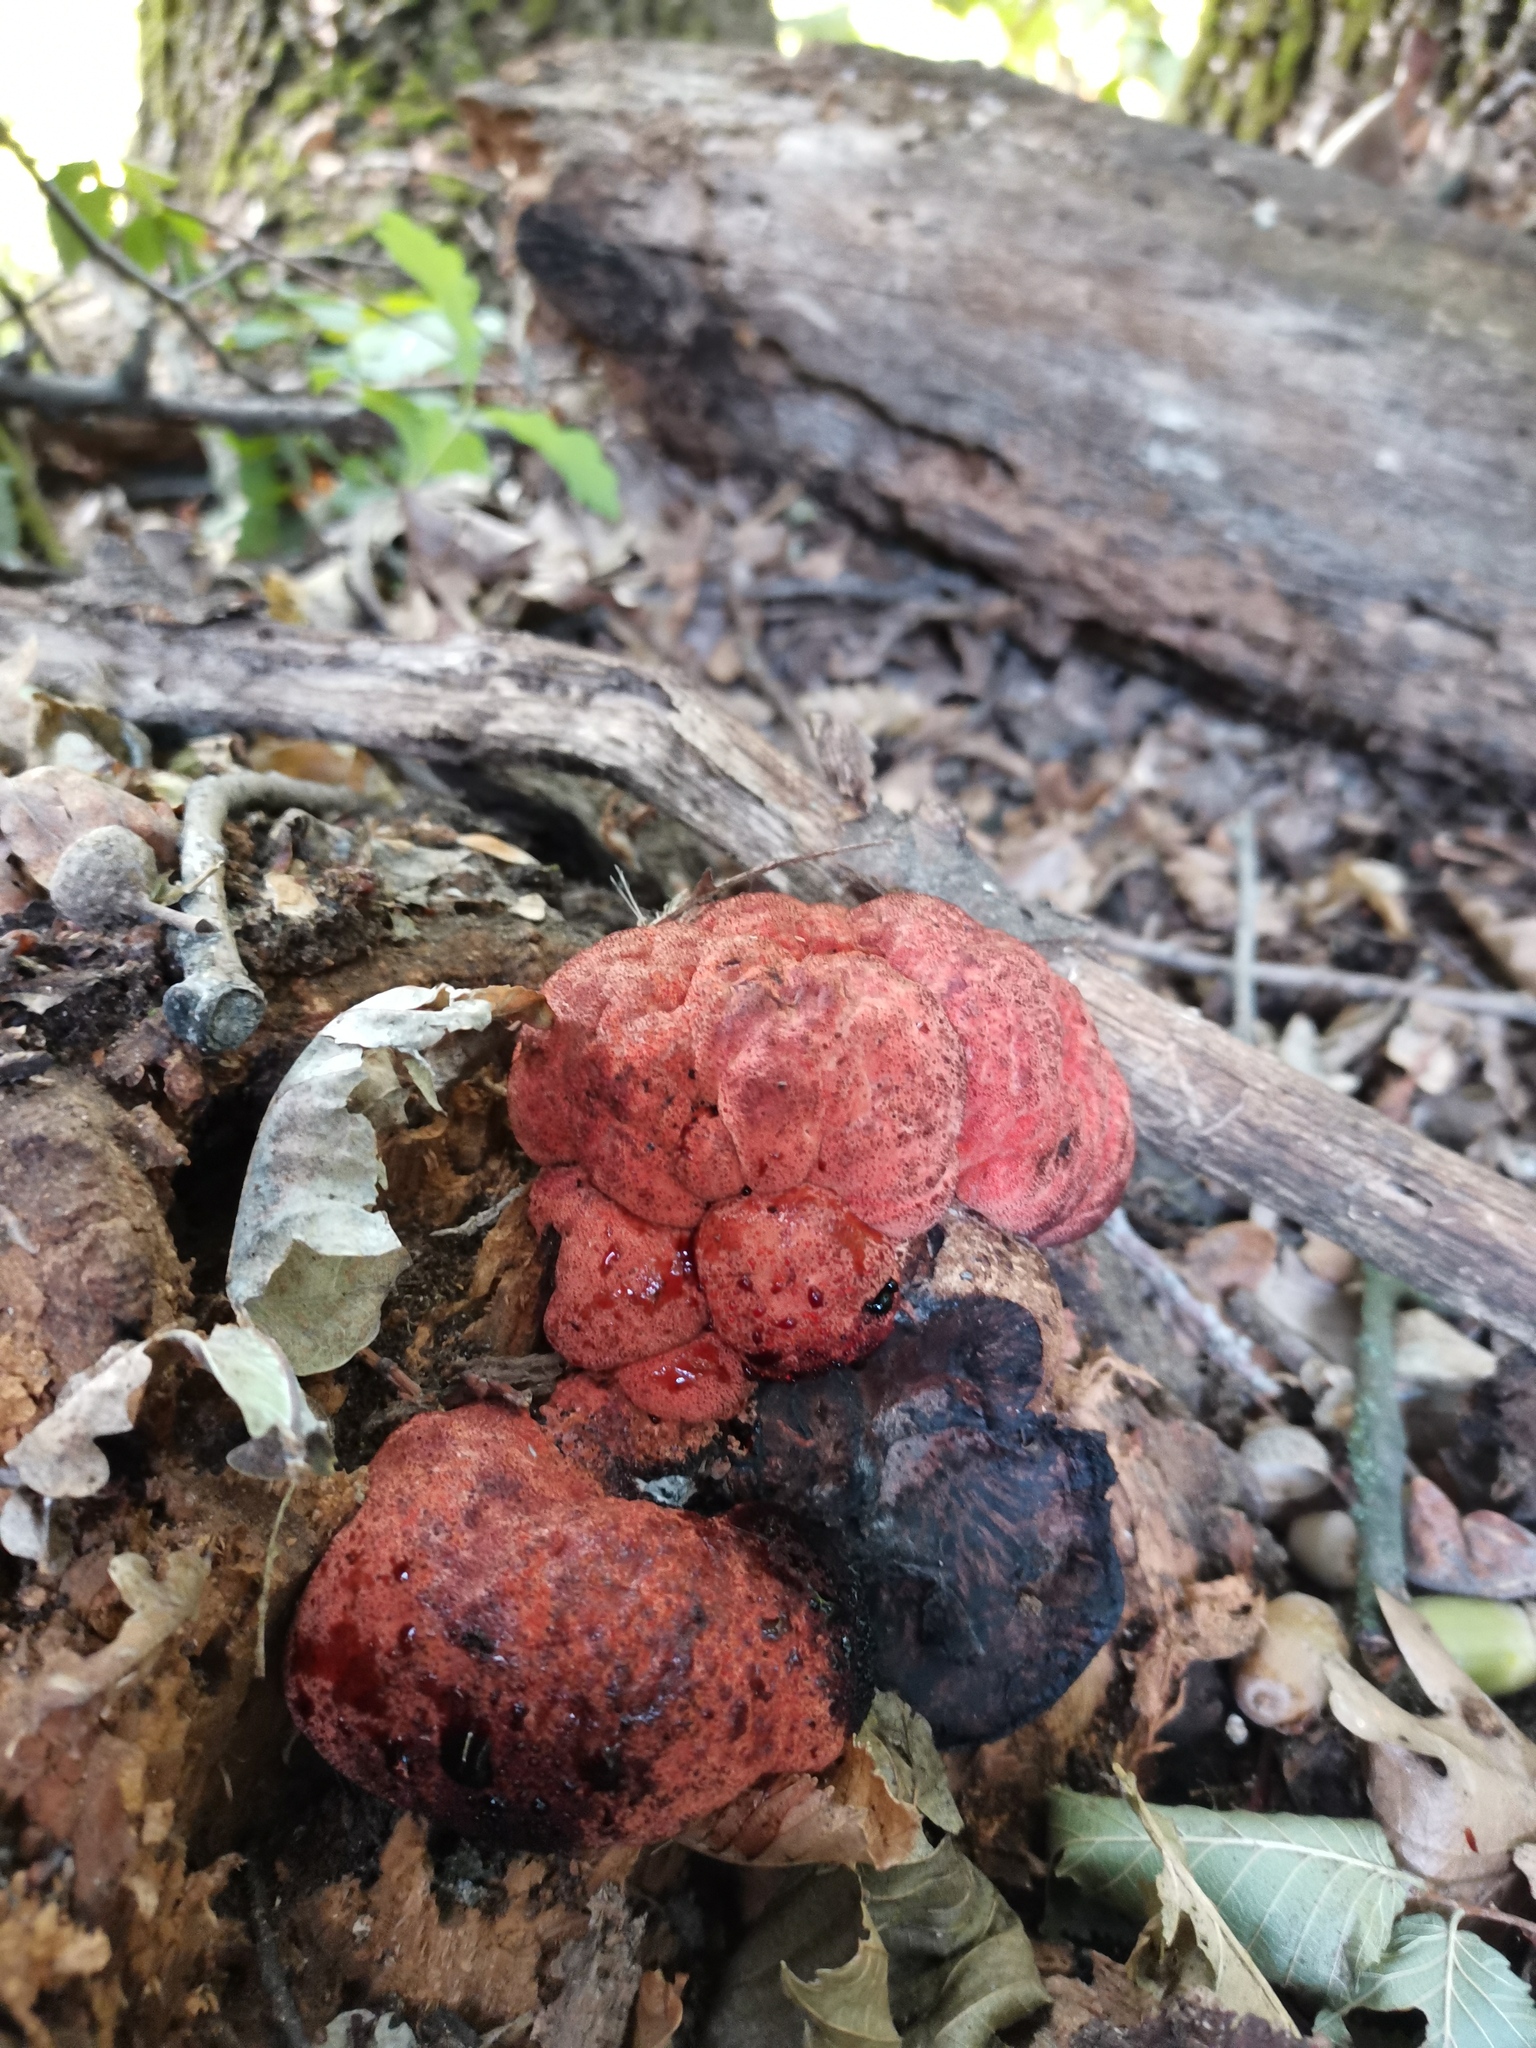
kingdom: Fungi
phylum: Basidiomycota
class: Agaricomycetes
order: Agaricales
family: Fistulinaceae
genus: Fistulina
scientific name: Fistulina hepatica
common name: Beef-steak fungus
